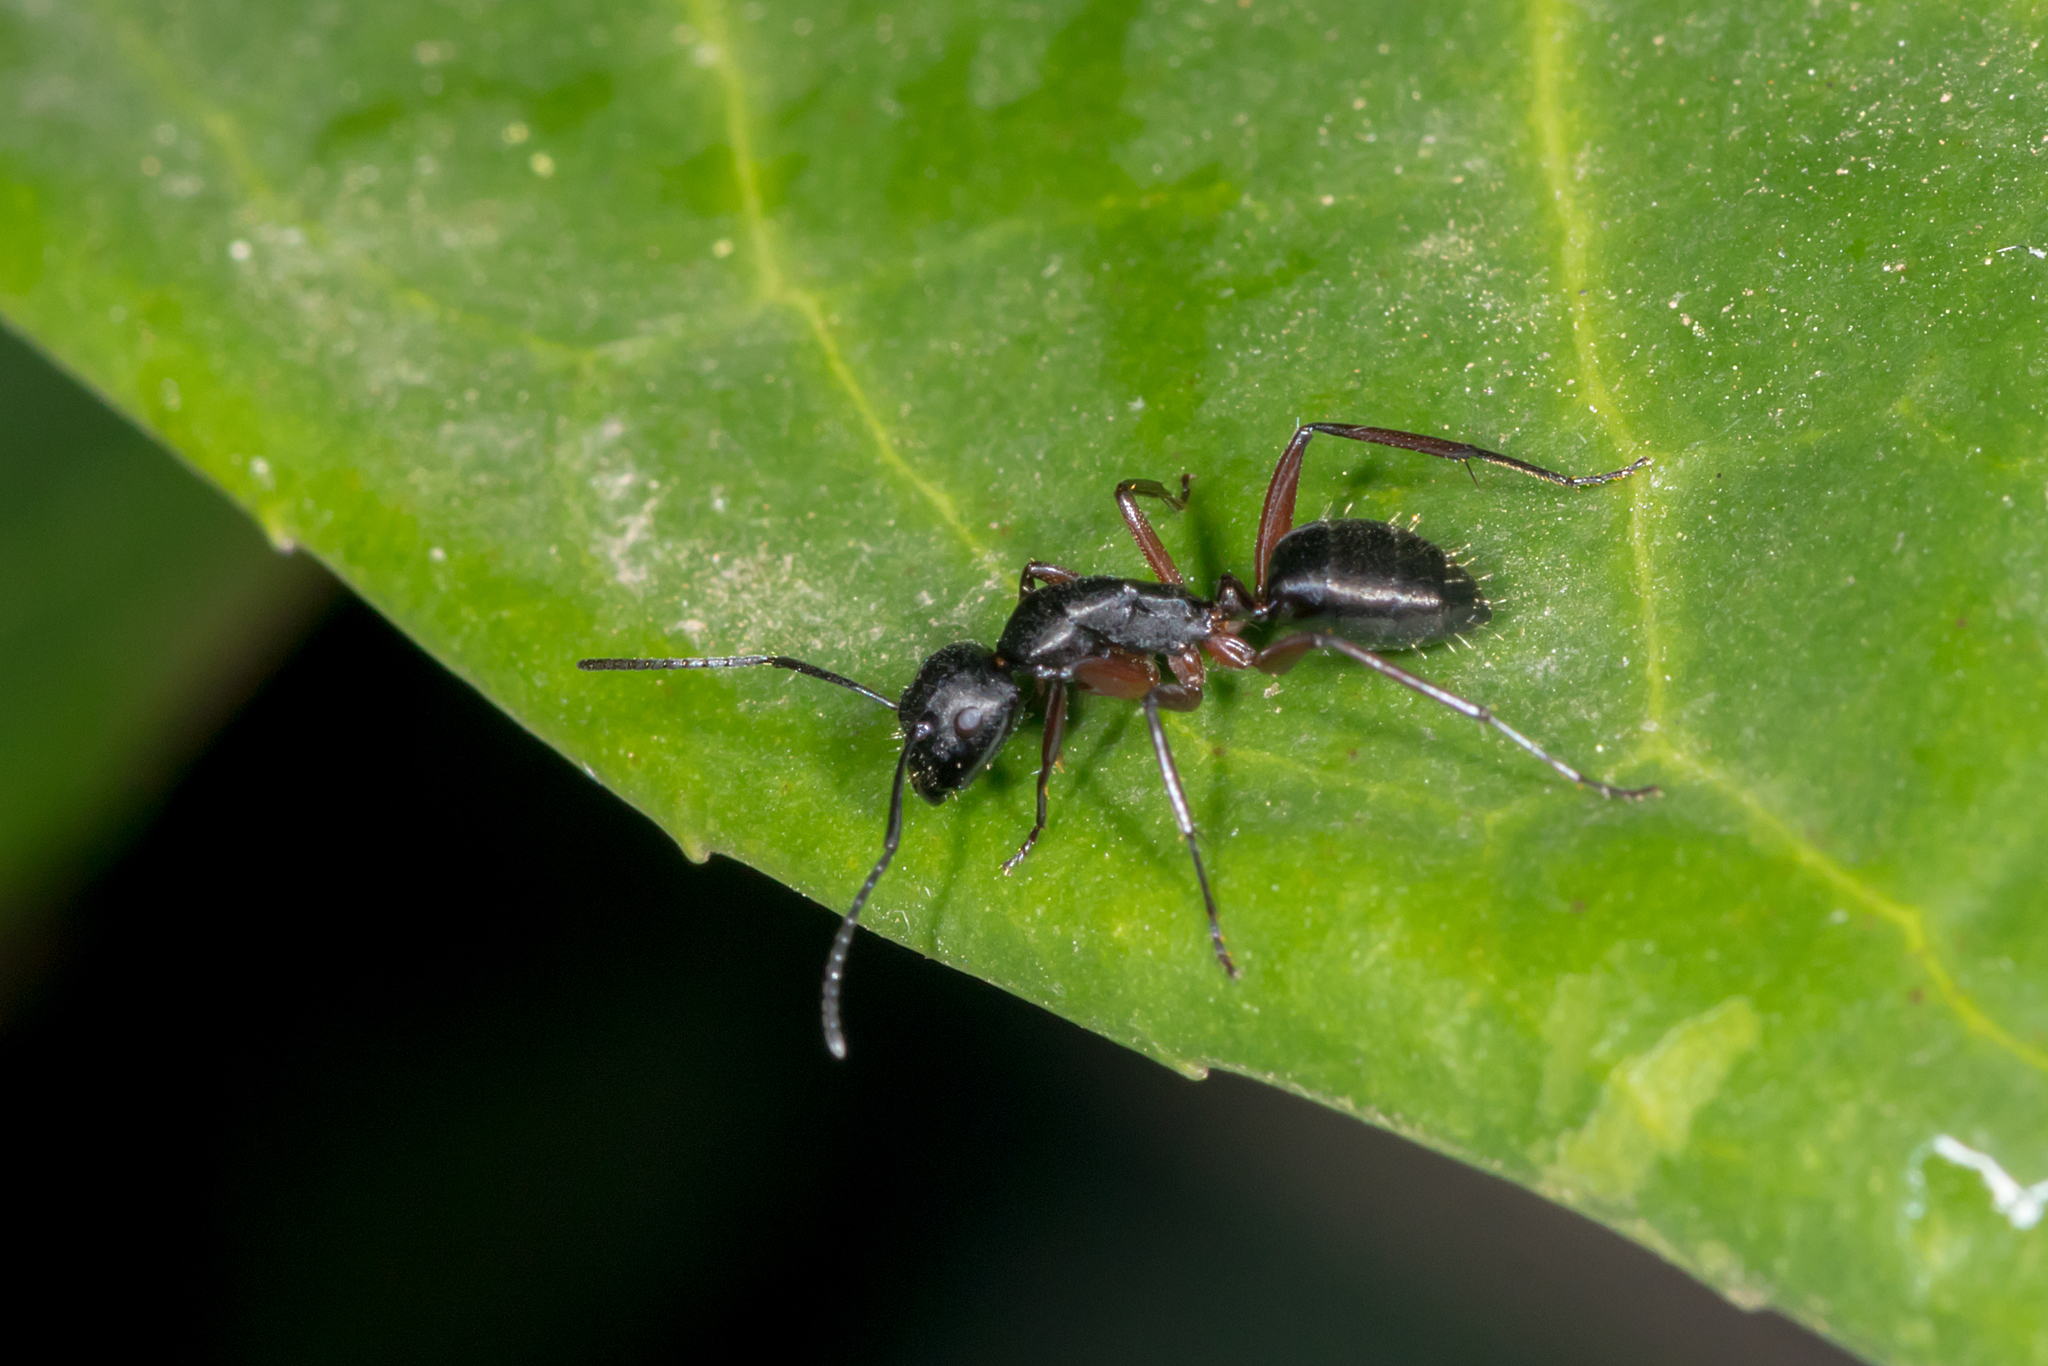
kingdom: Animalia
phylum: Arthropoda
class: Insecta
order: Hymenoptera
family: Formicidae
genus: Camponotus
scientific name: Camponotus hartogi
